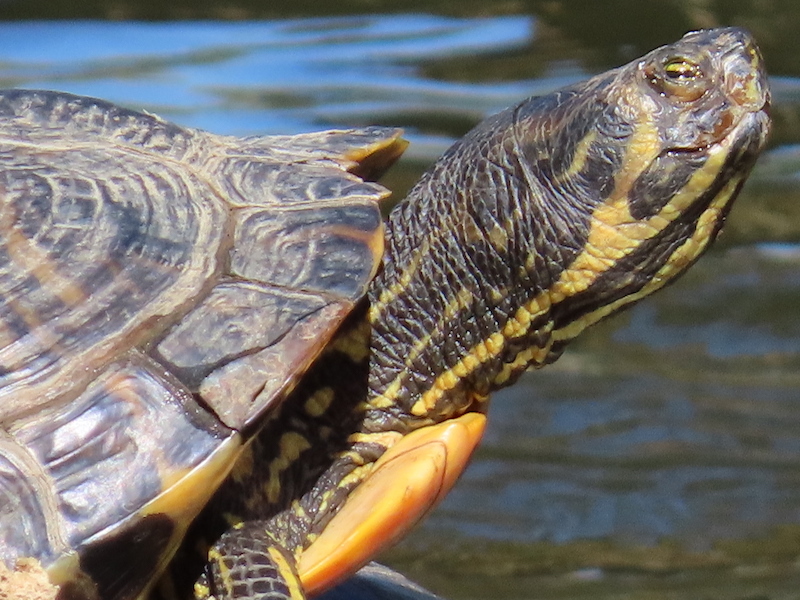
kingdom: Animalia
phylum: Chordata
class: Testudines
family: Emydidae
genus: Trachemys
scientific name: Trachemys scripta
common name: Slider
